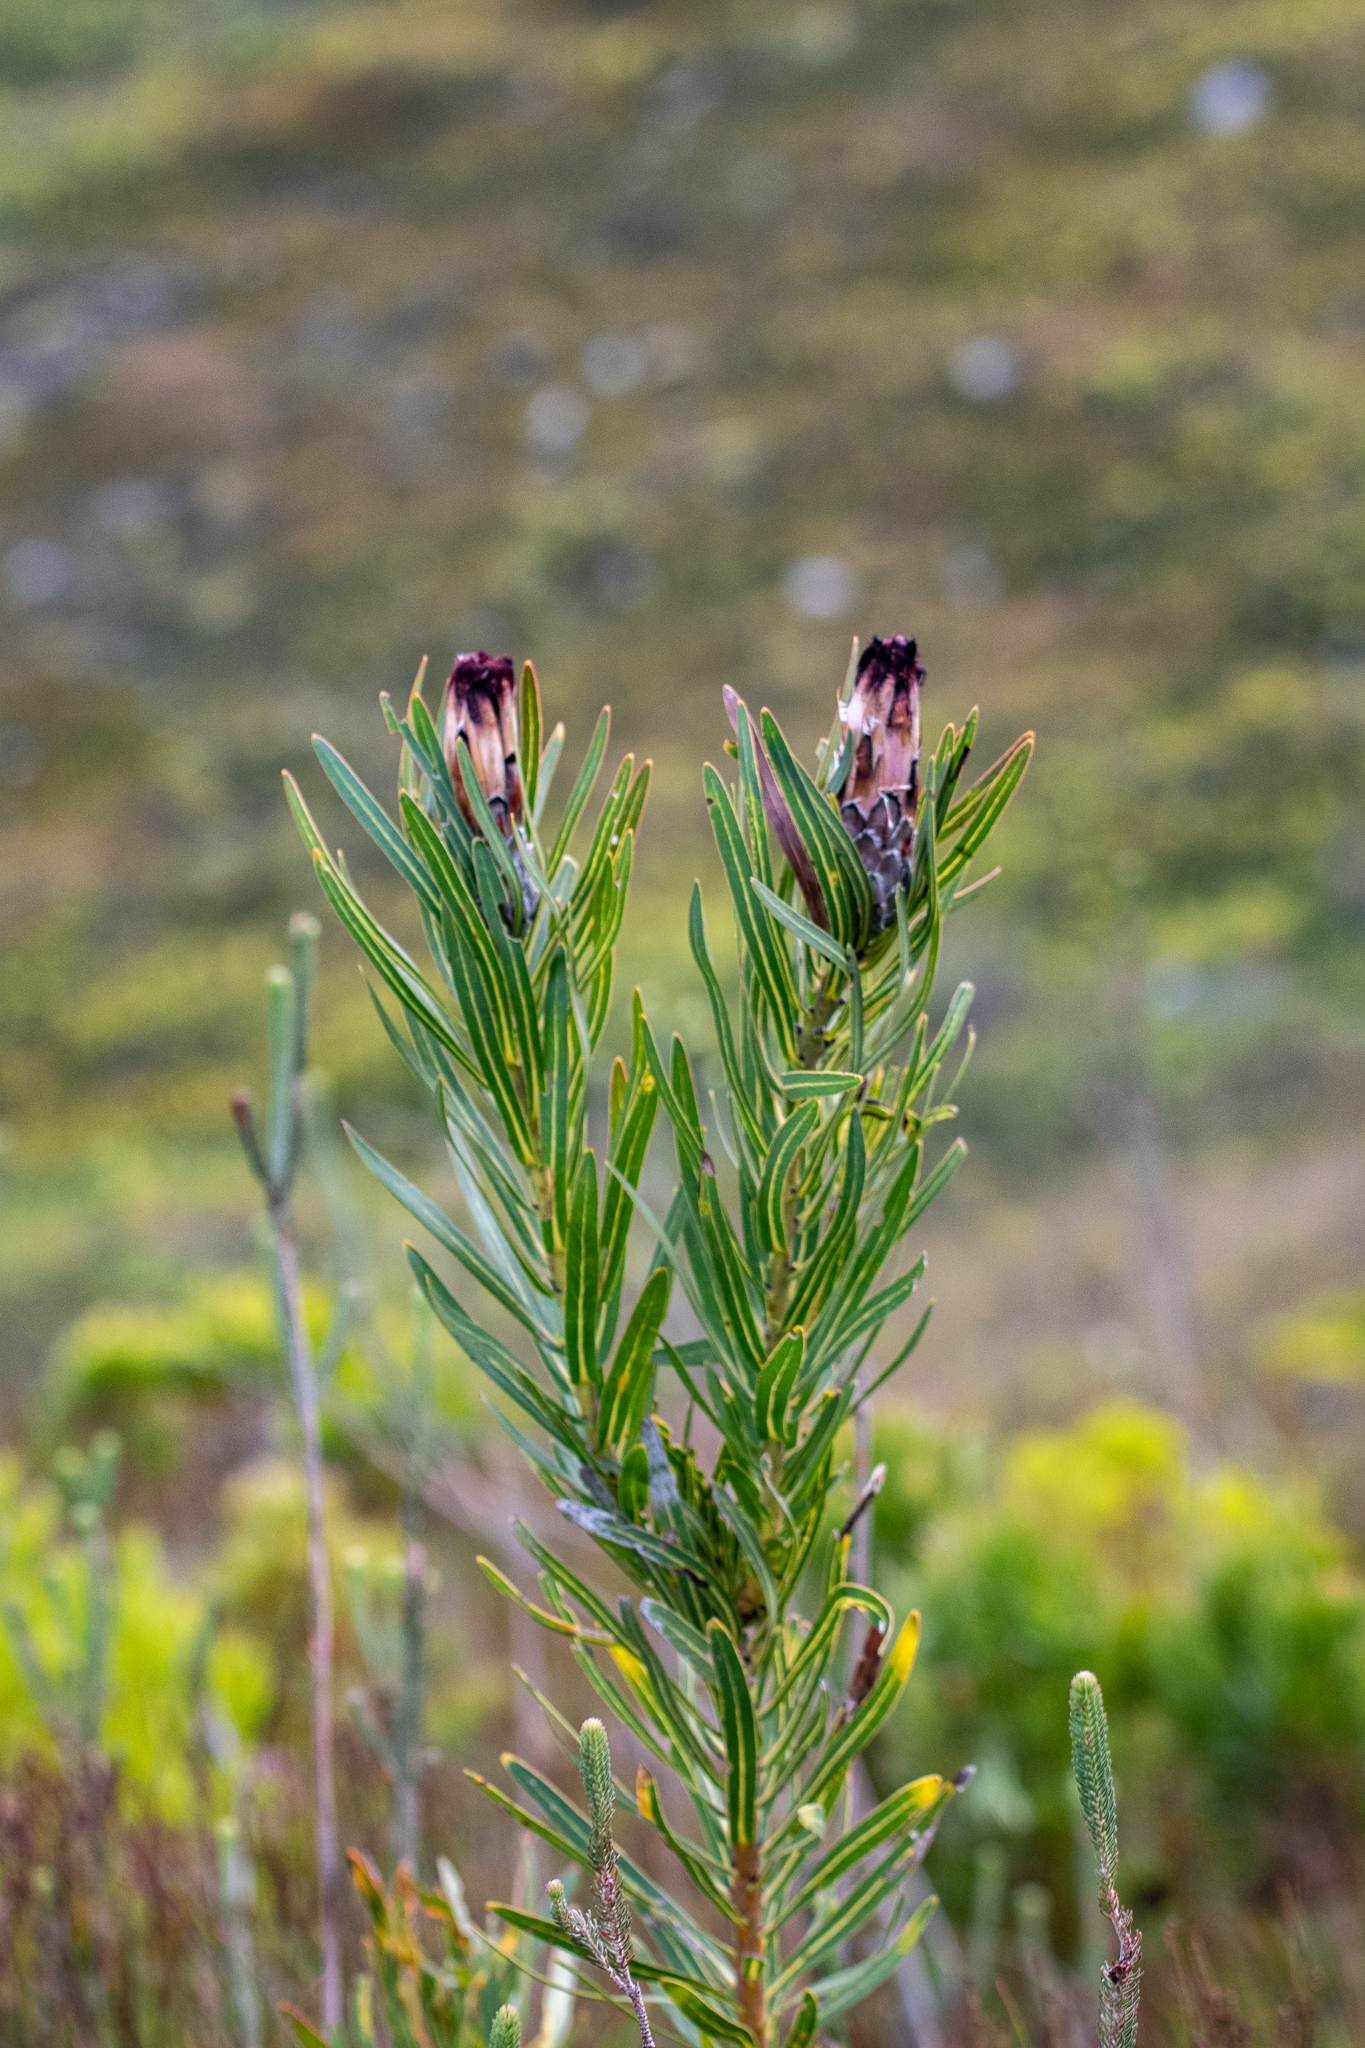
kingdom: Plantae
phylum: Tracheophyta
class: Magnoliopsida
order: Proteales
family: Proteaceae
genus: Protea
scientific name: Protea lepidocarpodendron
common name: Black-bearded protea
